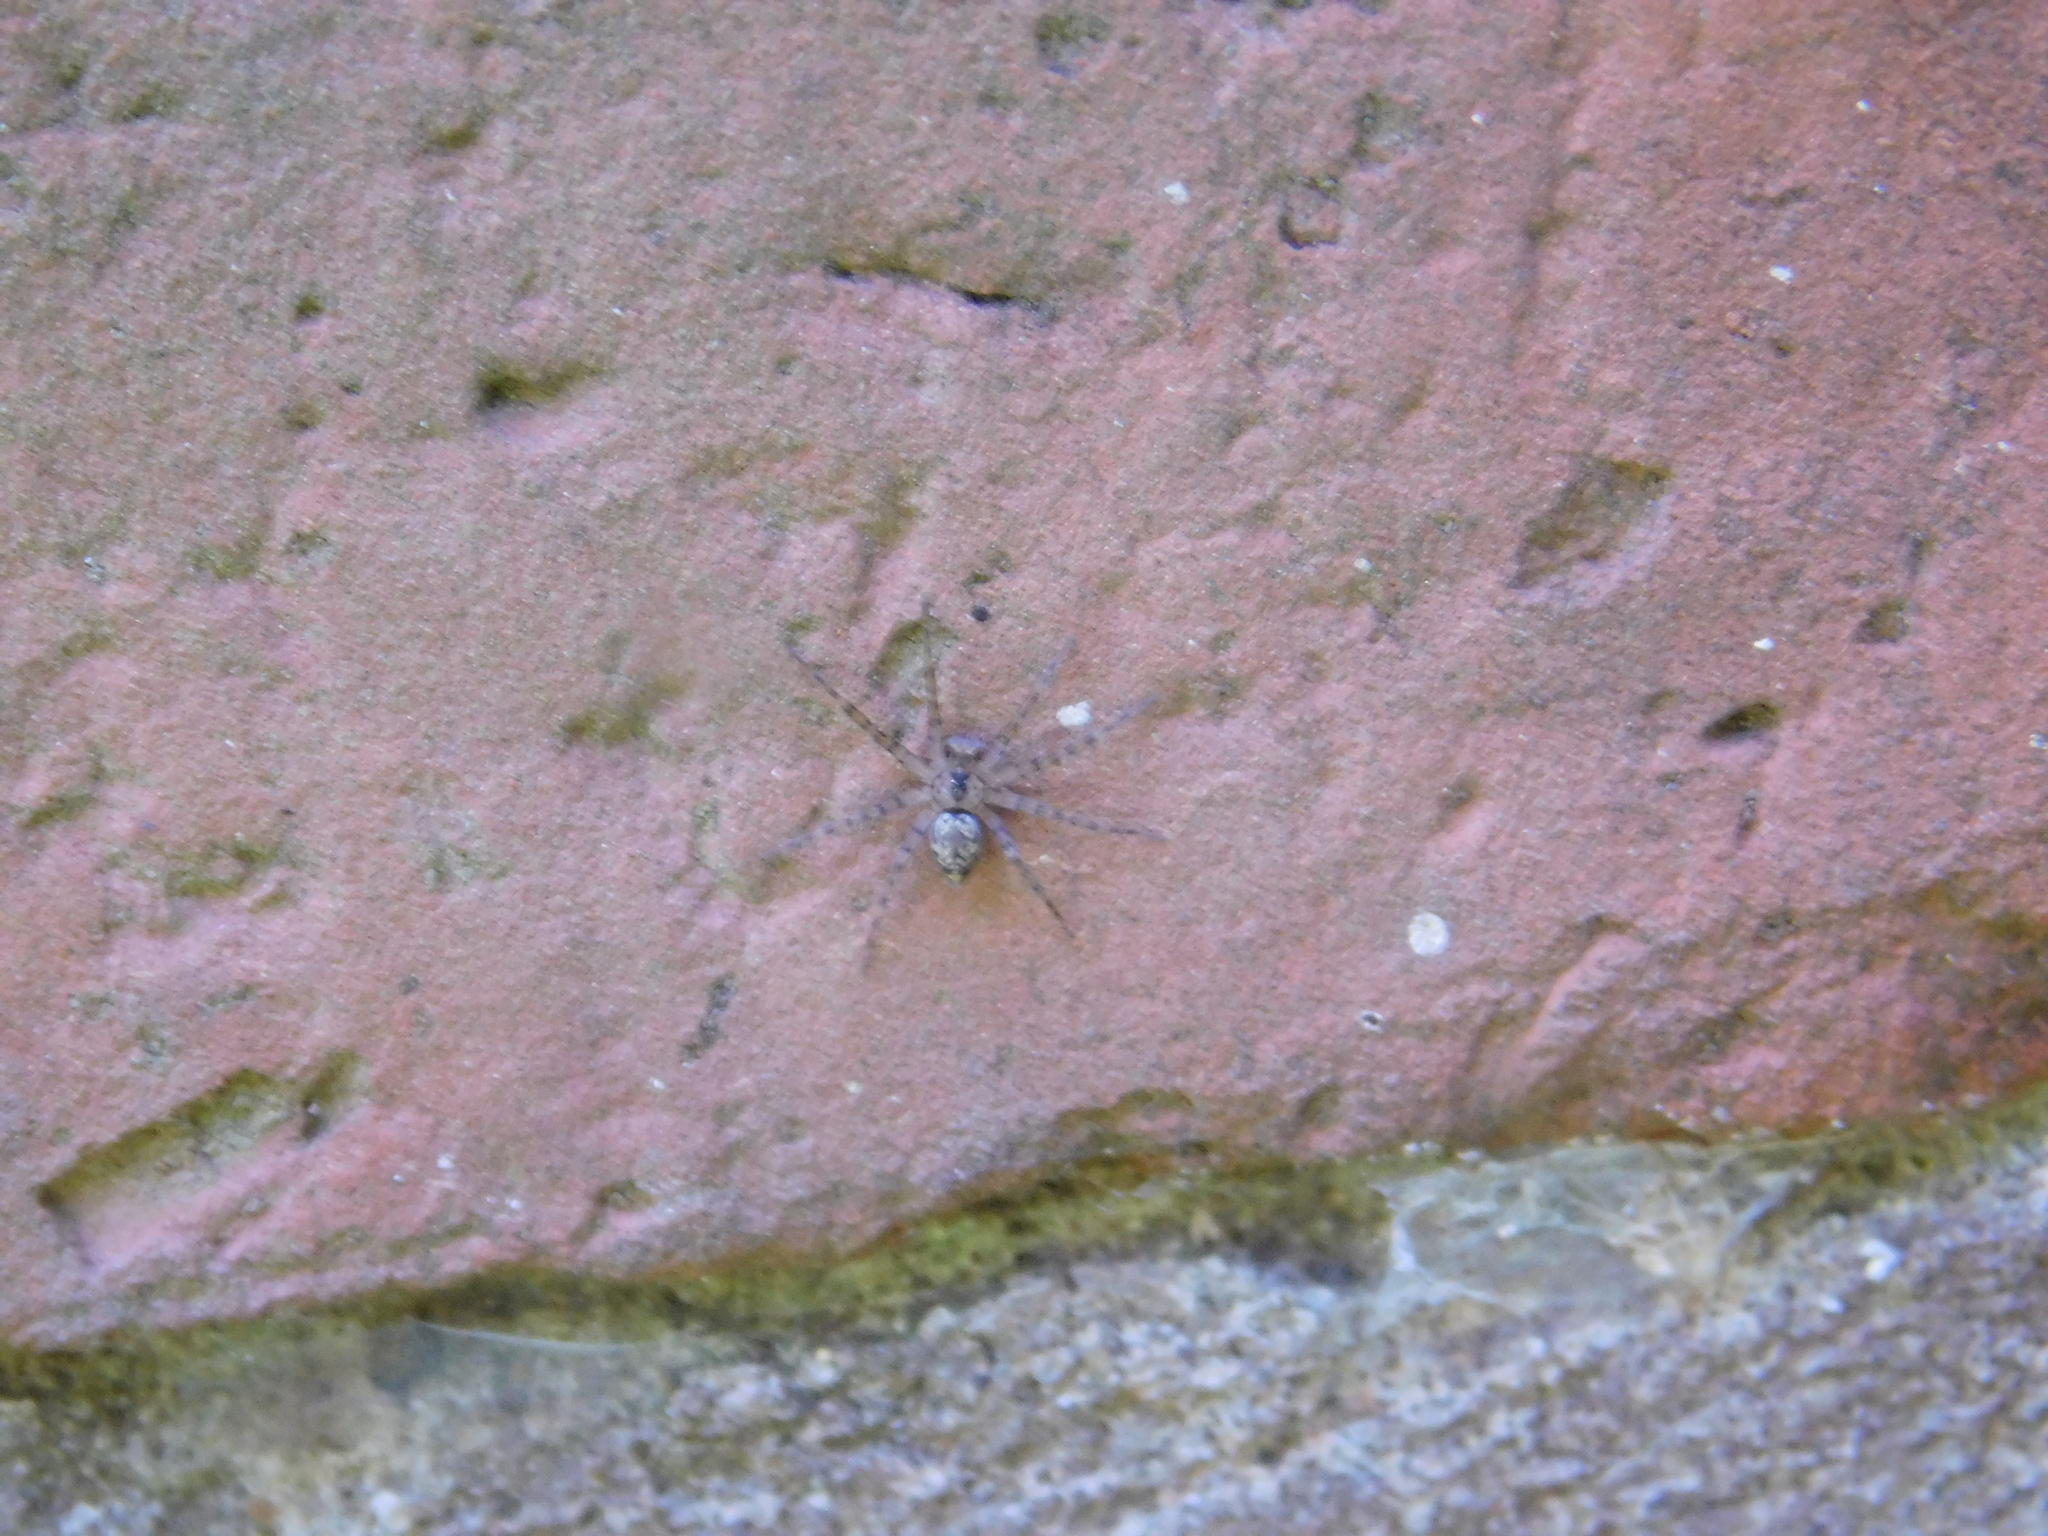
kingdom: Animalia
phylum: Arthropoda
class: Arachnida
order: Araneae
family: Oecobiidae
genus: Oecobius
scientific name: Oecobius navus
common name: Flatmesh weaver
